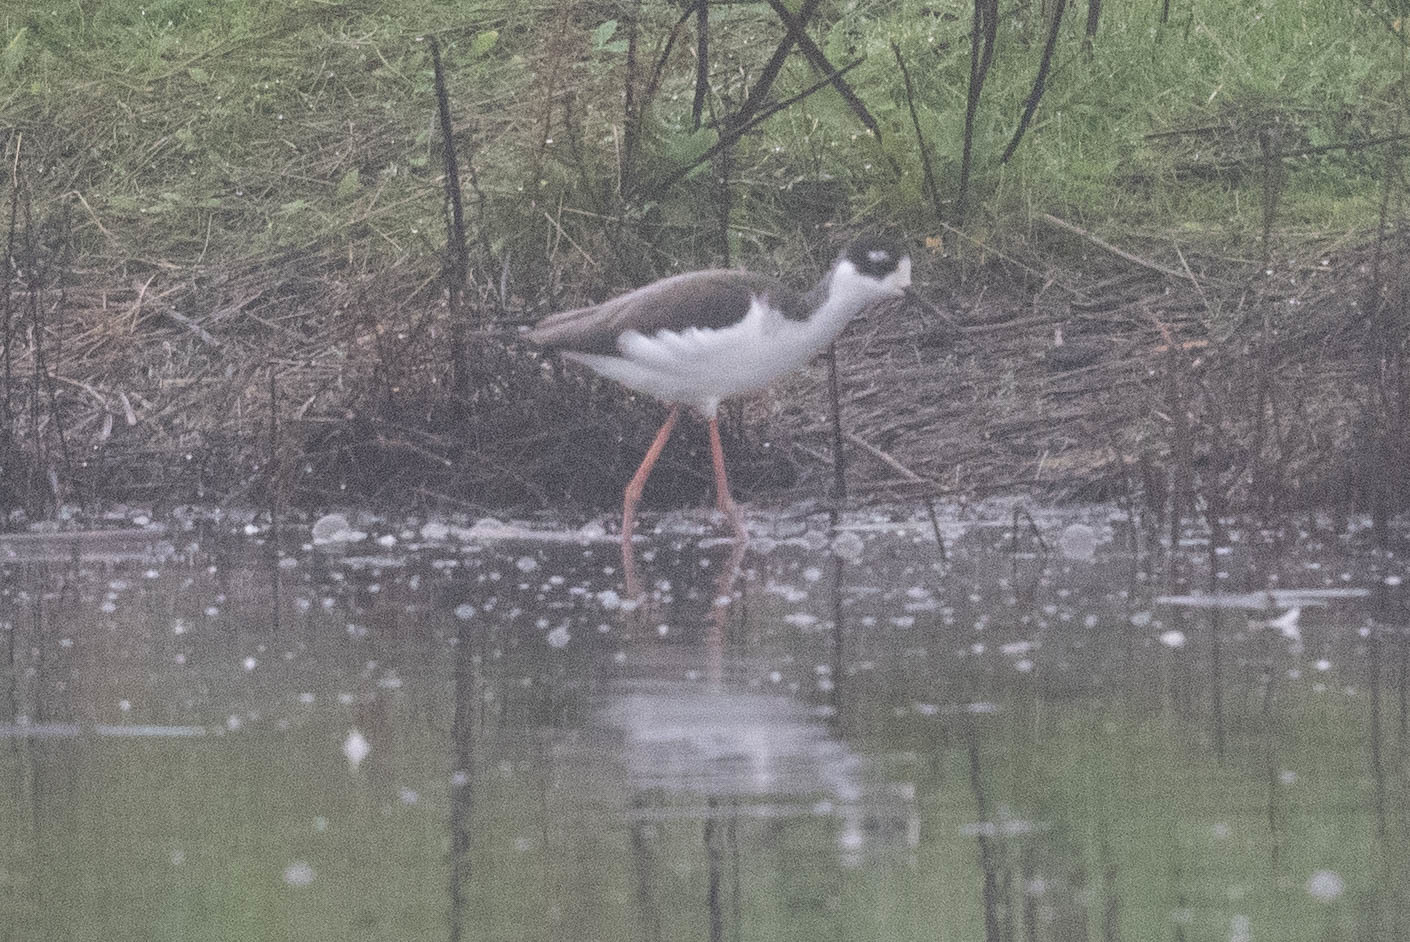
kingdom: Animalia
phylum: Chordata
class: Aves
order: Charadriiformes
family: Recurvirostridae
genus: Himantopus
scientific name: Himantopus mexicanus
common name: Black-necked stilt
